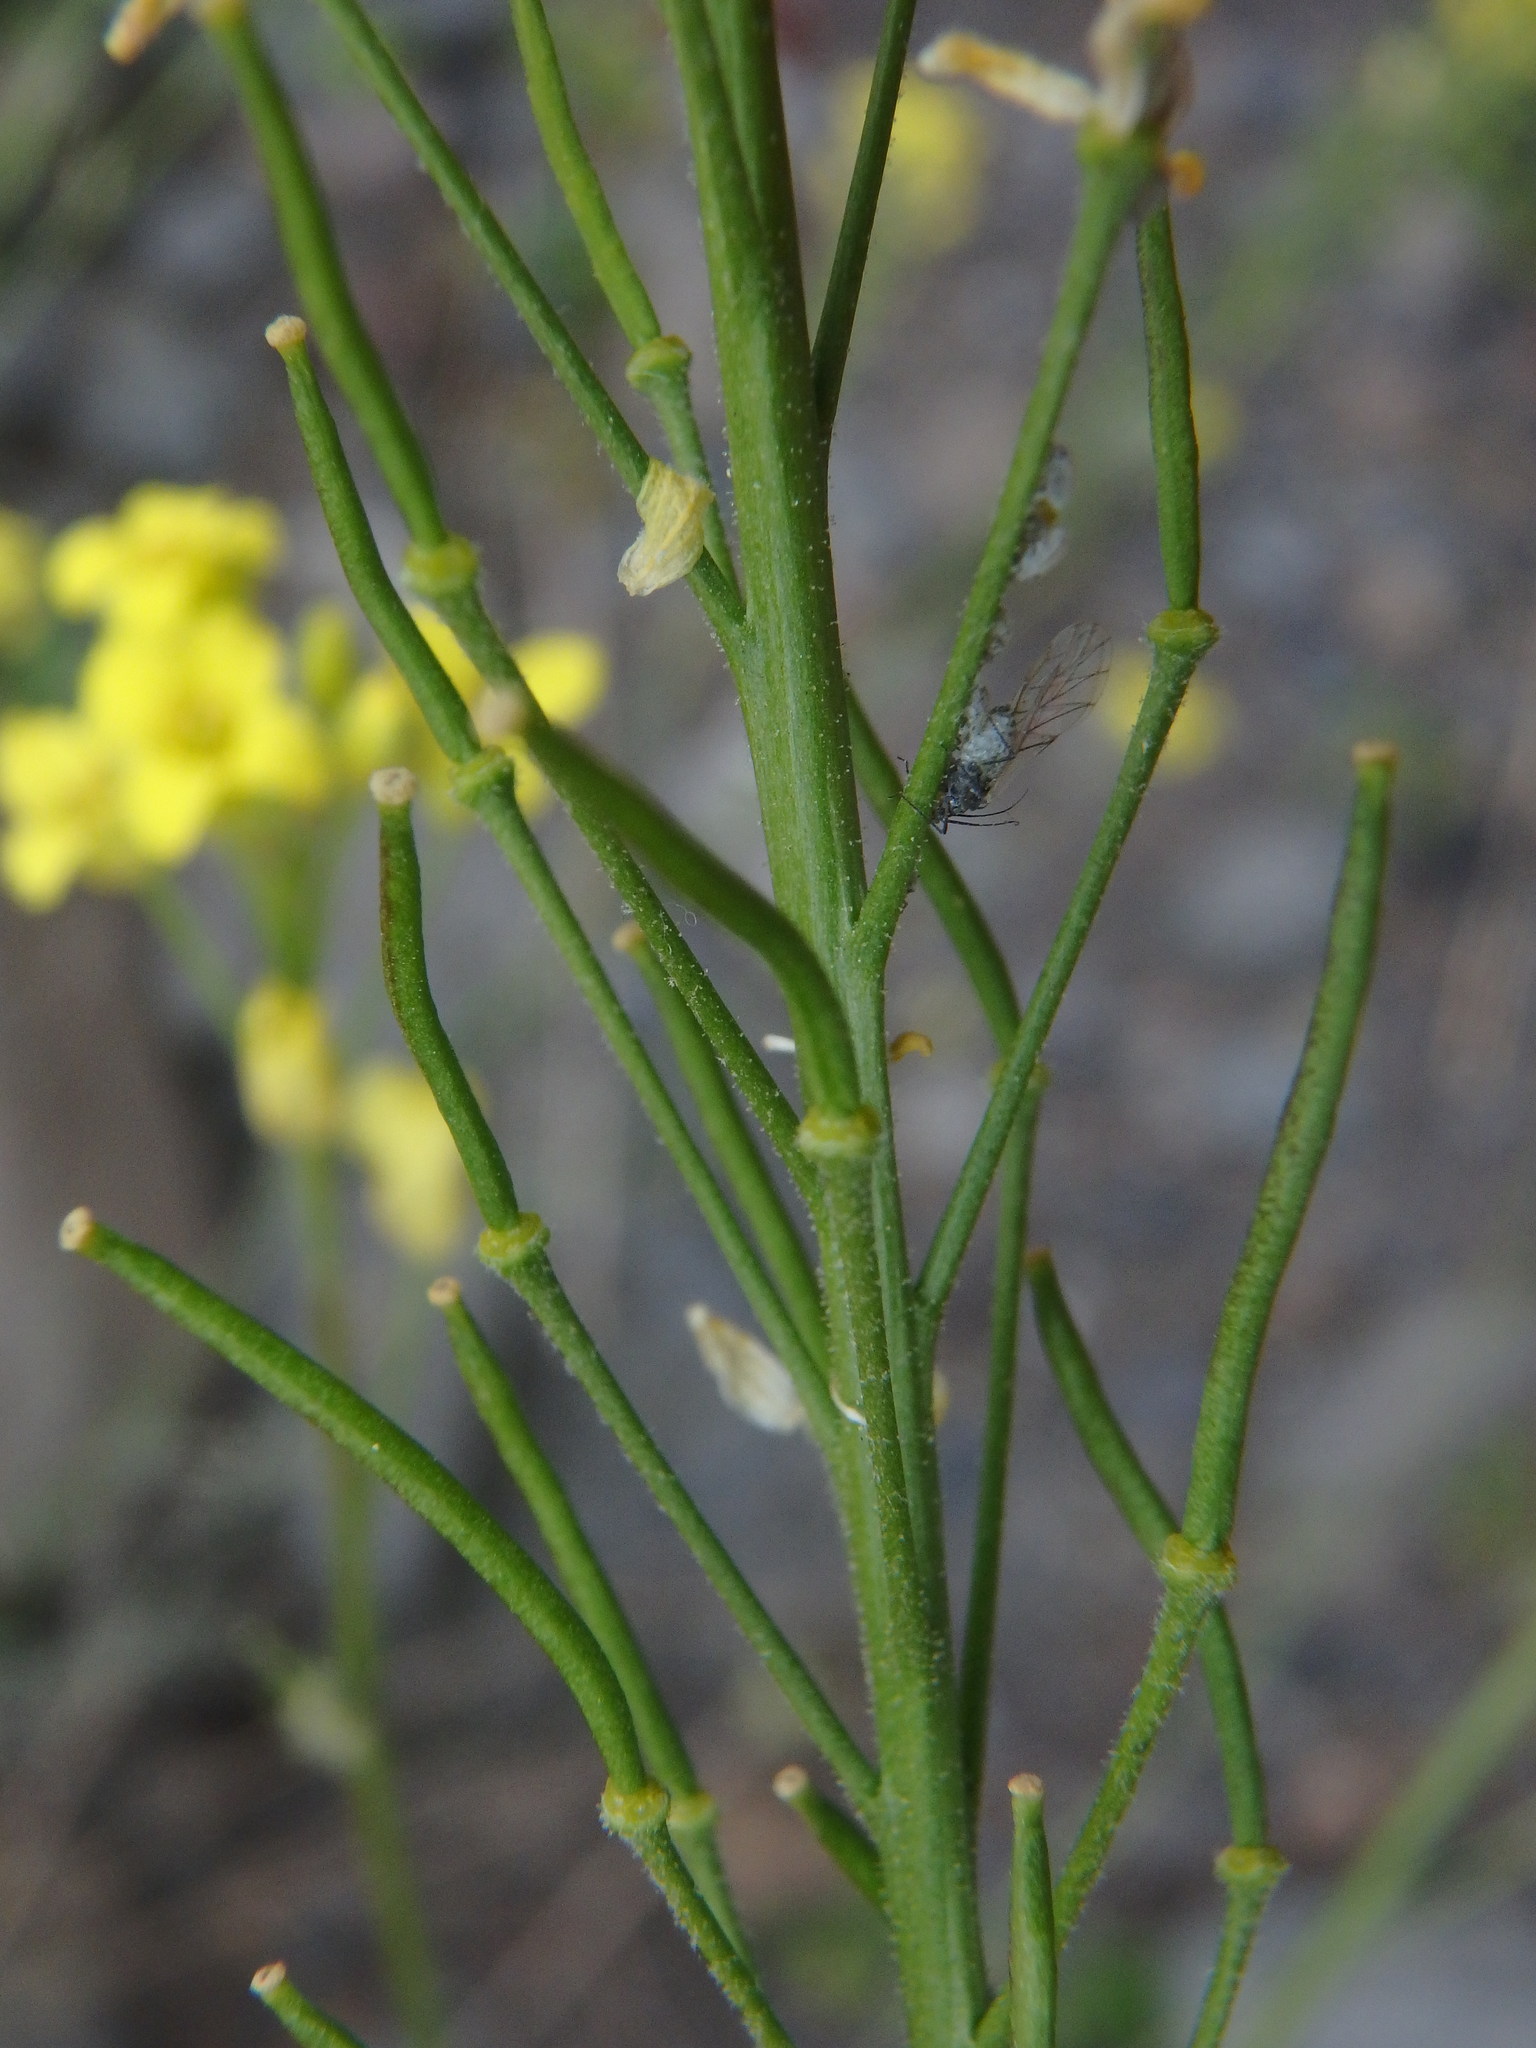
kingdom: Plantae
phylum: Tracheophyta
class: Magnoliopsida
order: Brassicales
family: Brassicaceae
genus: Descurainia
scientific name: Descurainia lemsii
